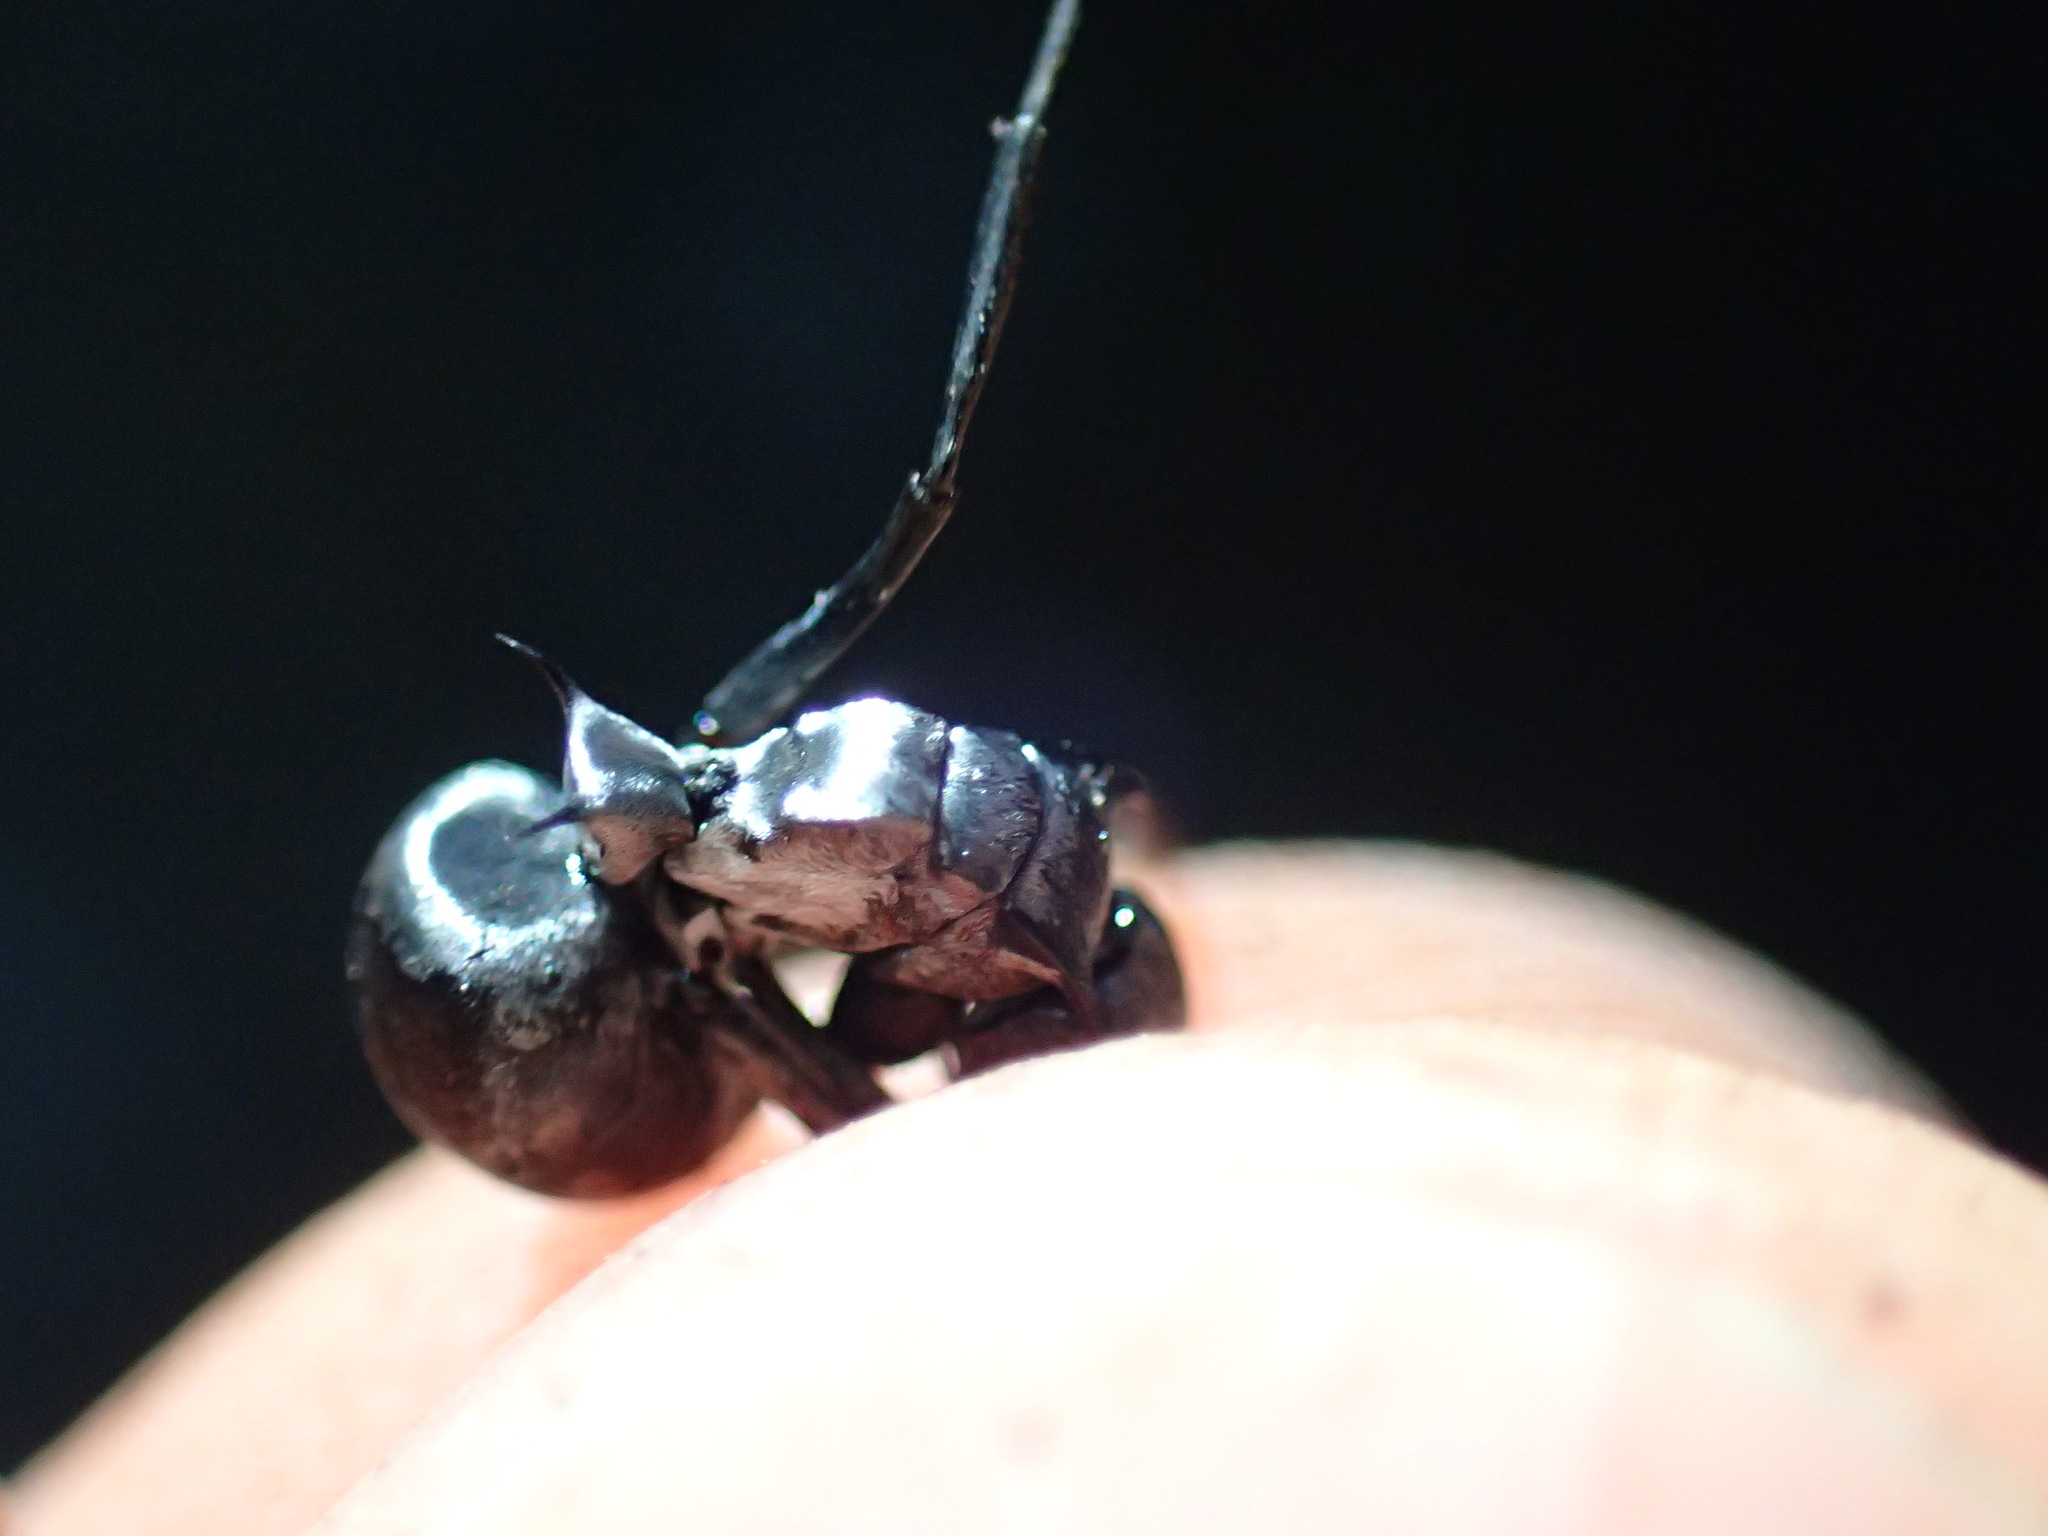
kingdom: Animalia
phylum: Arthropoda
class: Insecta
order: Hymenoptera
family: Formicidae
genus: Polyrhachis
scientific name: Polyrhachis schlueteri
